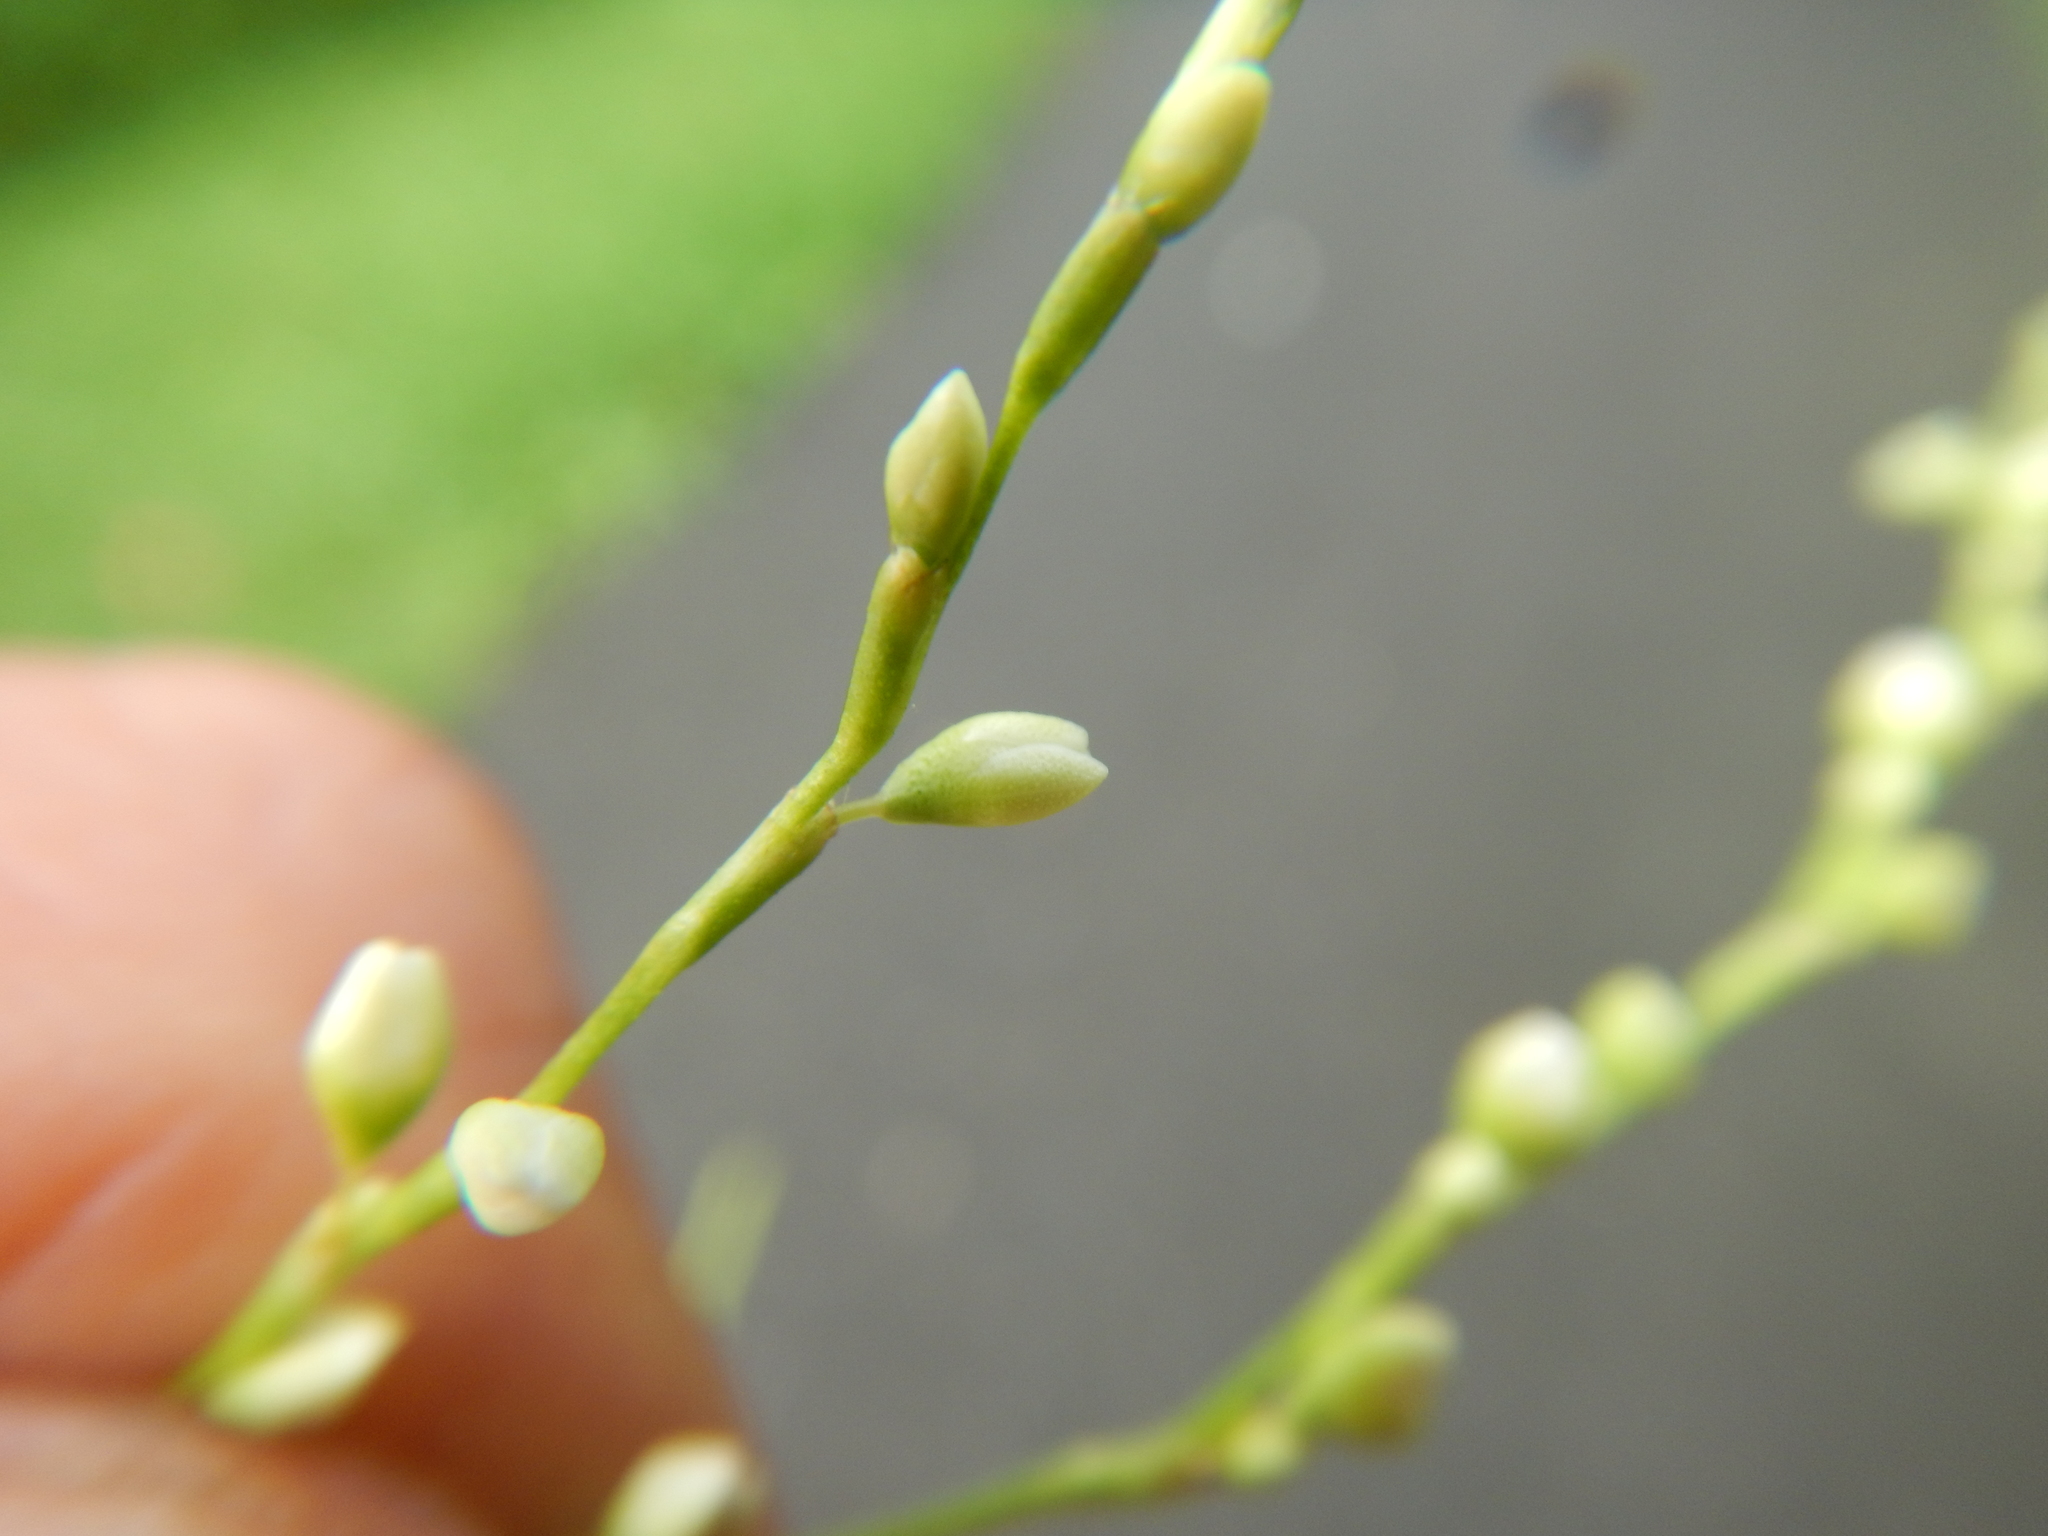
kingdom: Plantae
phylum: Tracheophyta
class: Magnoliopsida
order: Caryophyllales
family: Polygonaceae
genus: Persicaria
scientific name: Persicaria punctata
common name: Dotted smartweed
